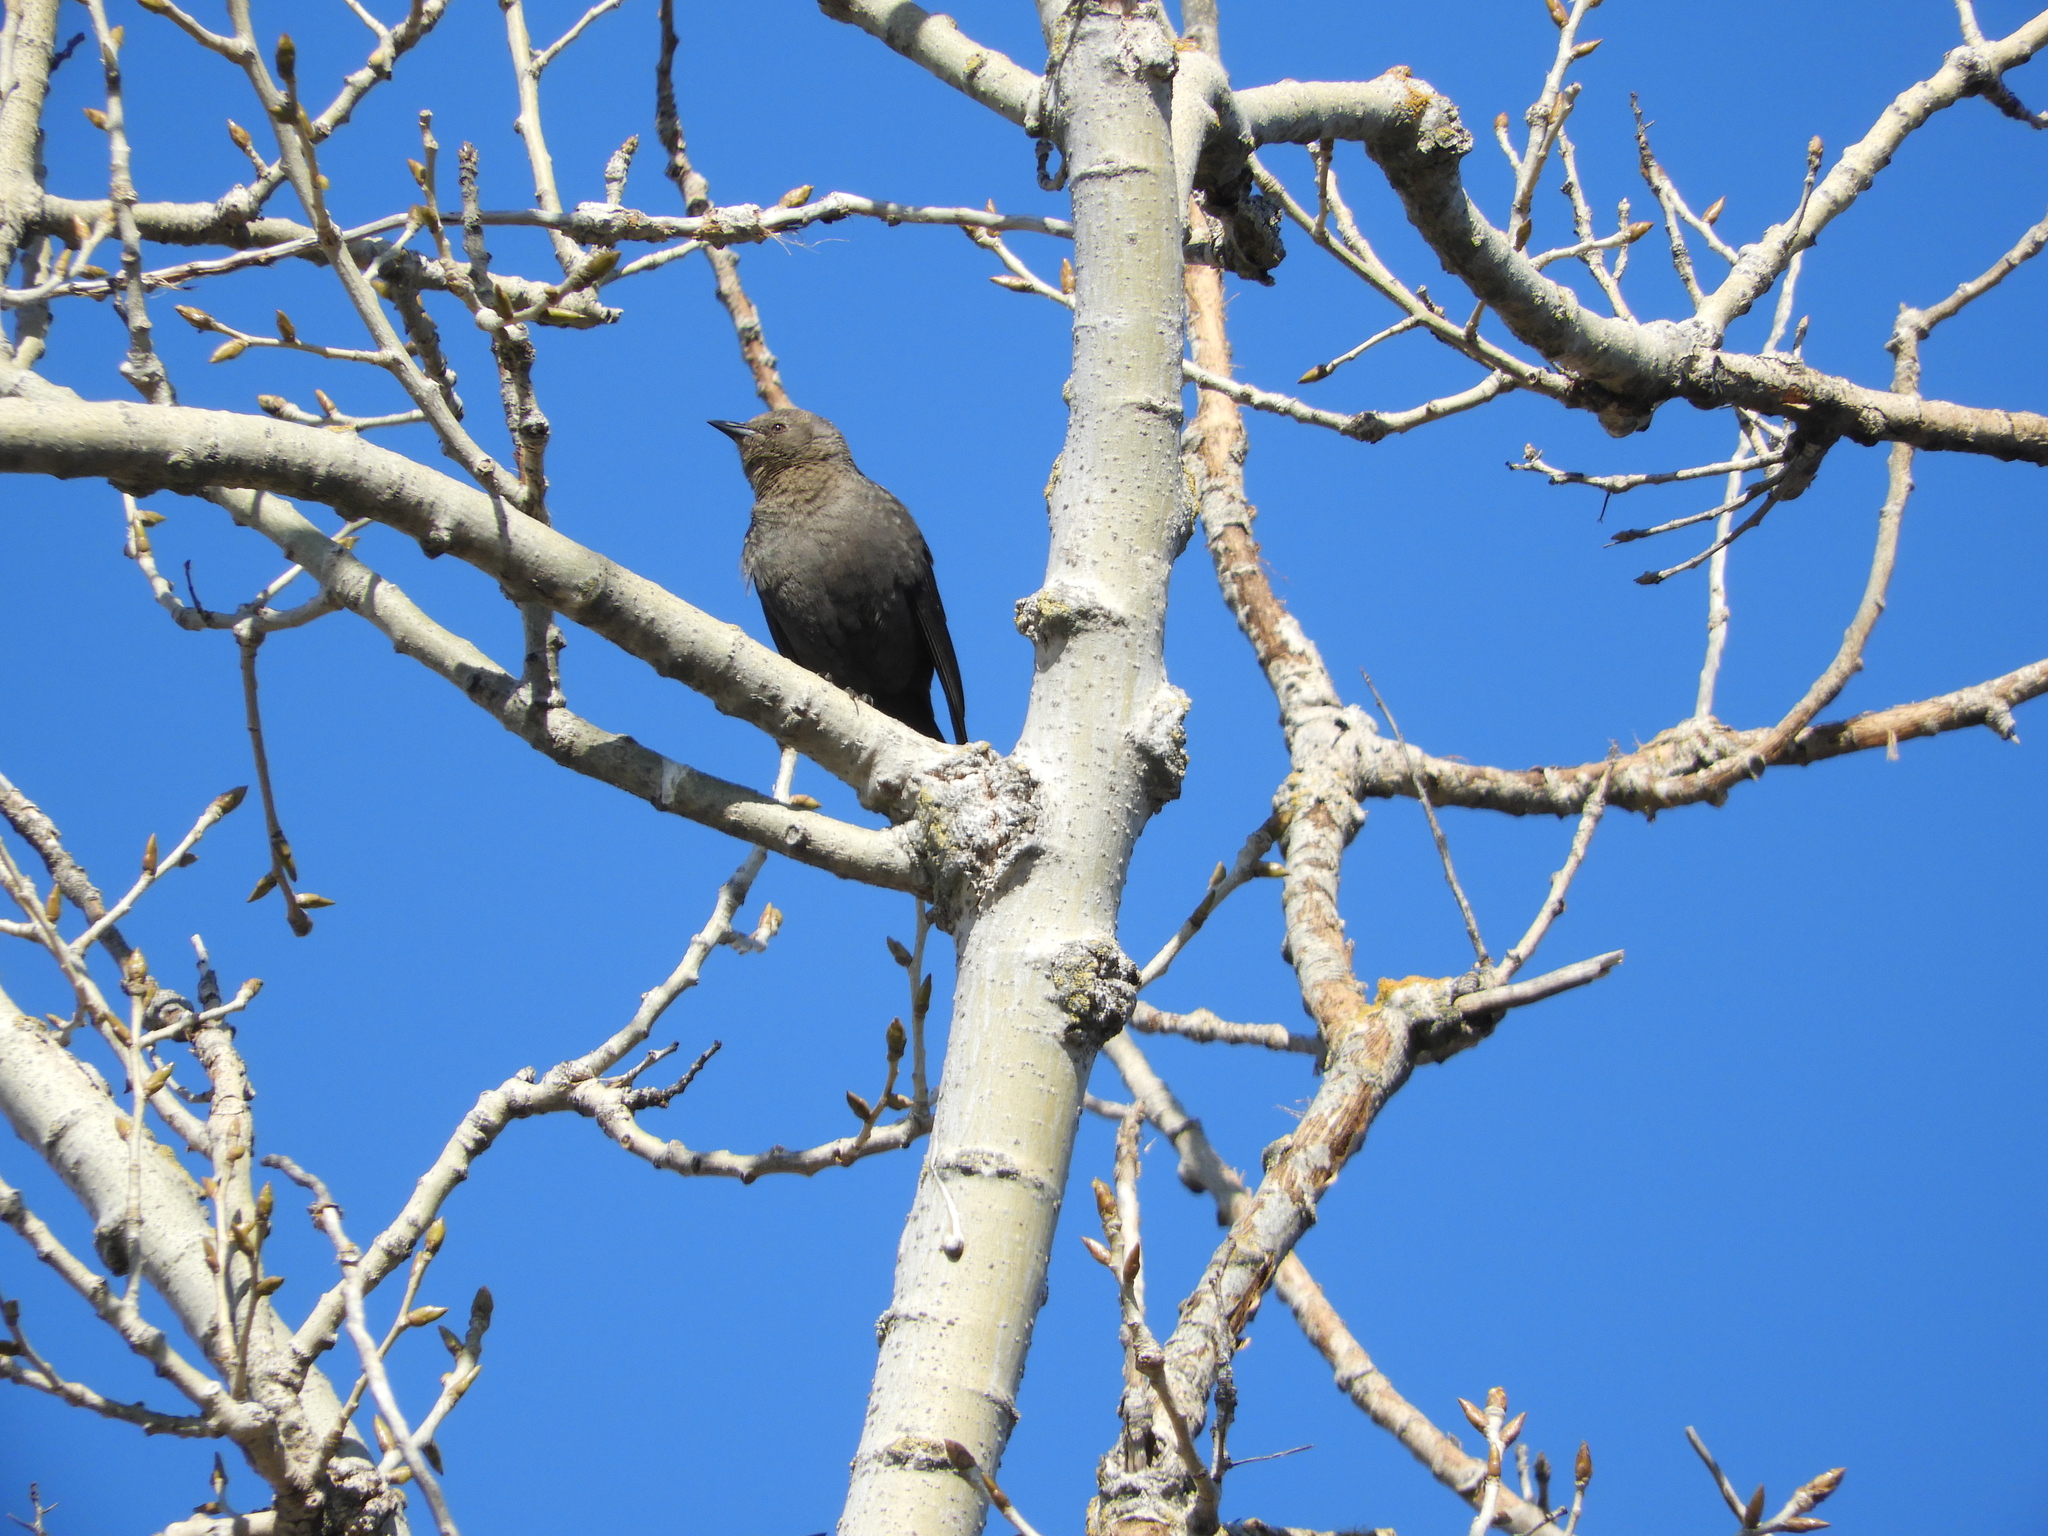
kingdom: Animalia
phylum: Chordata
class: Aves
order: Passeriformes
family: Icteridae
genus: Euphagus
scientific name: Euphagus cyanocephalus
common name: Brewer's blackbird
